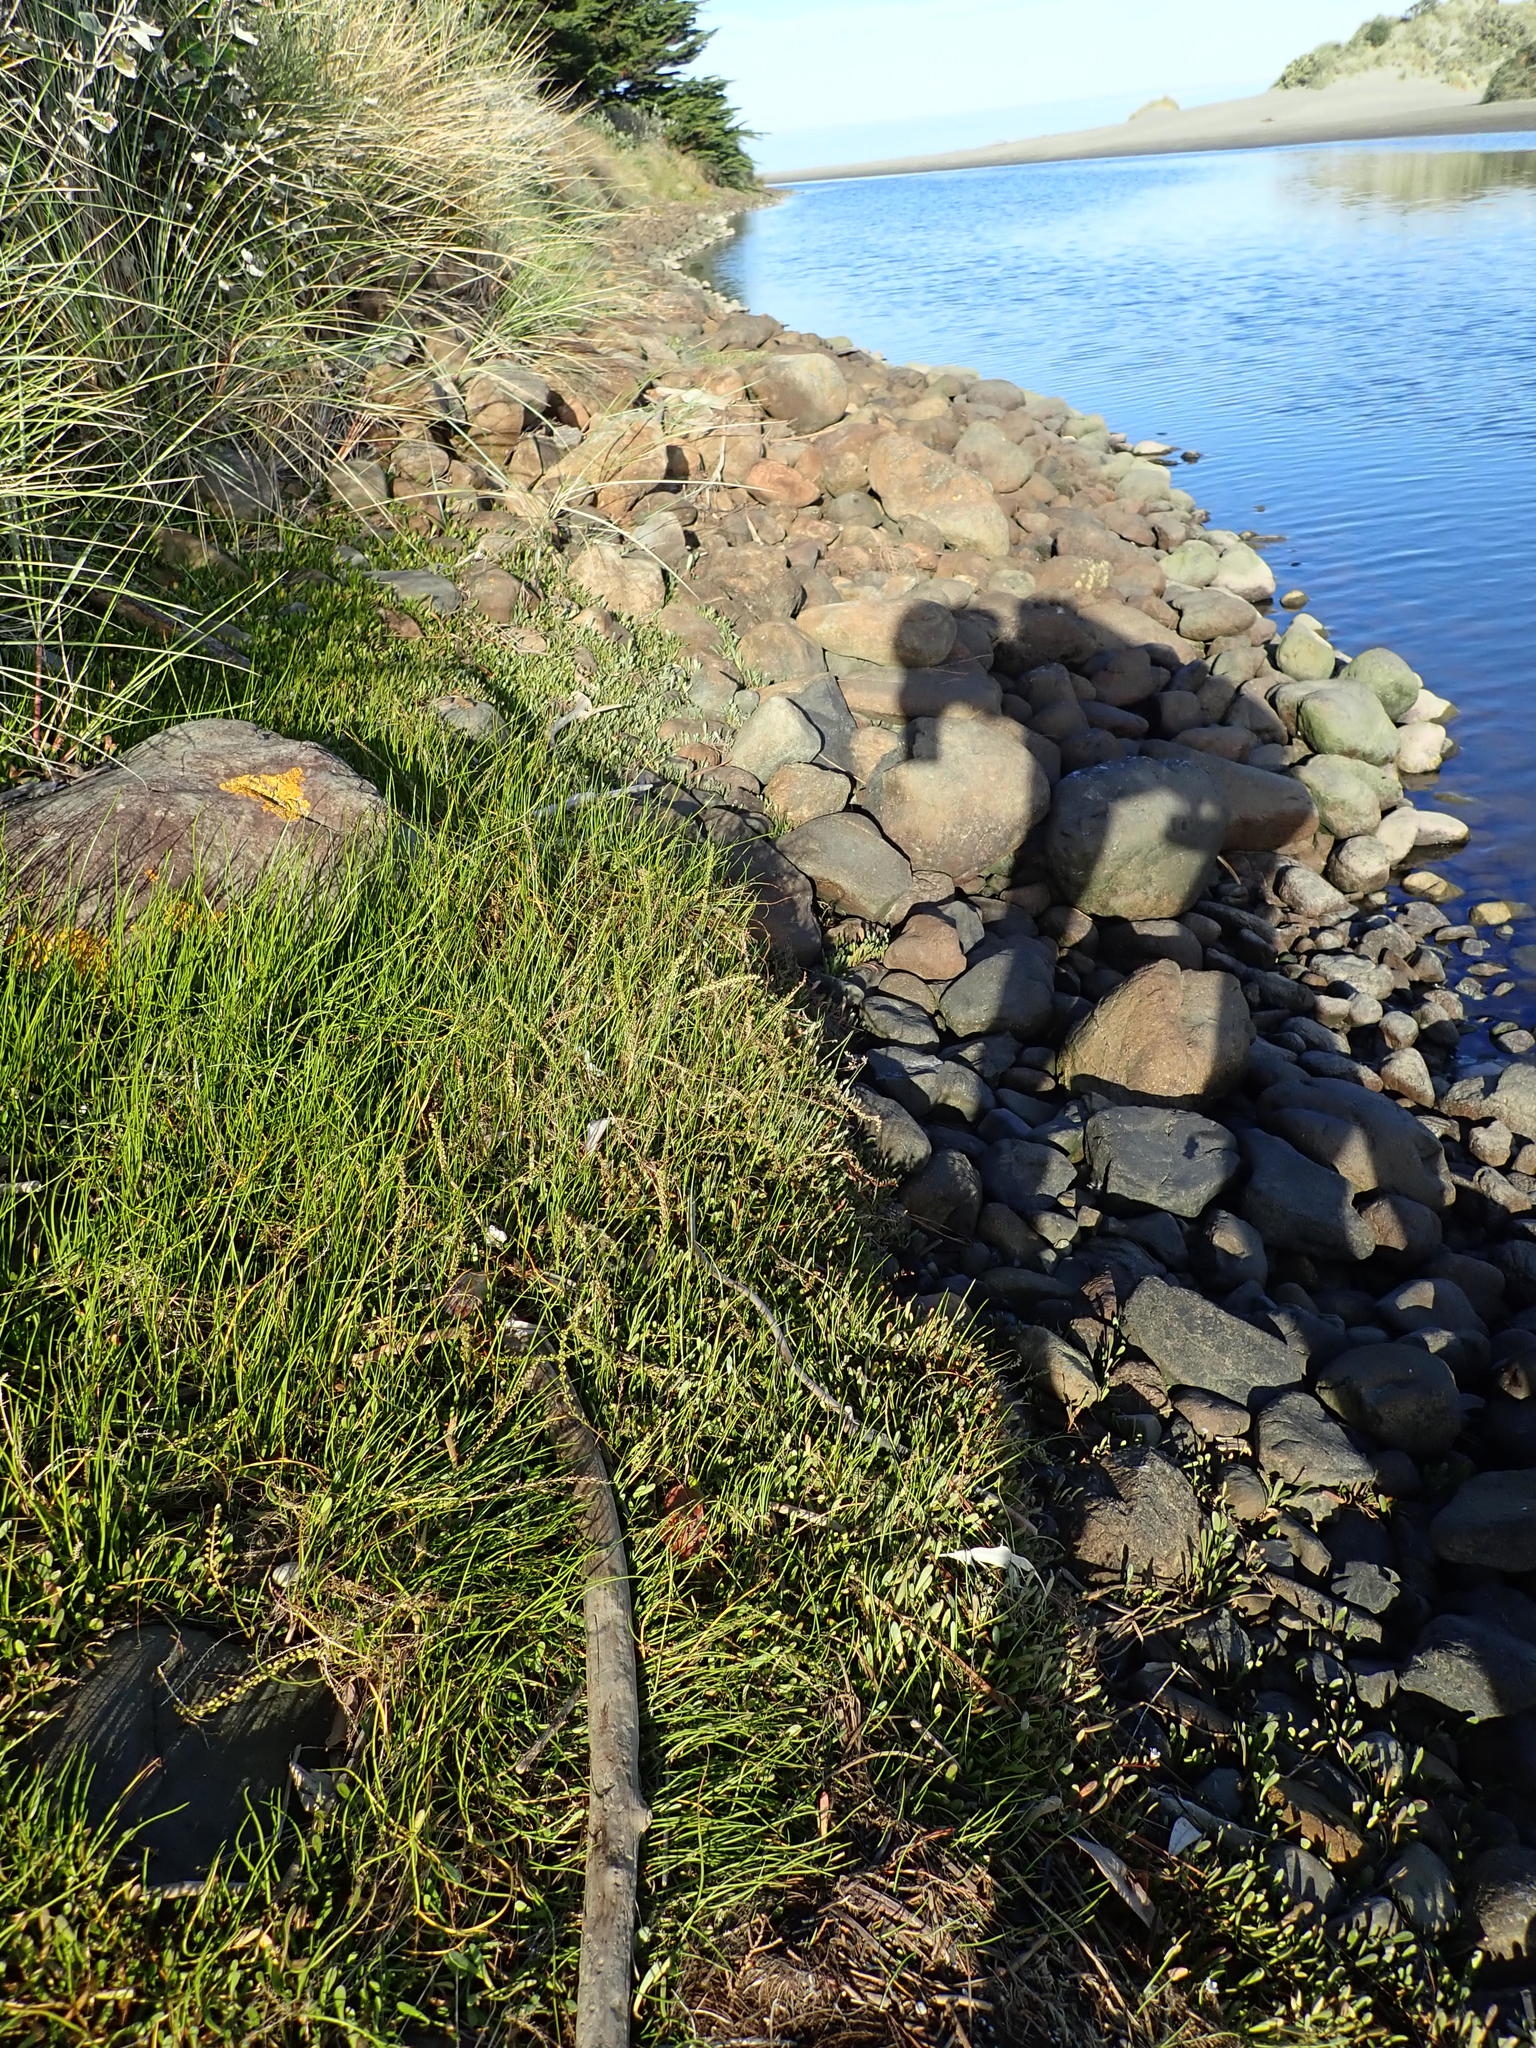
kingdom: Plantae
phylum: Tracheophyta
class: Liliopsida
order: Alismatales
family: Juncaginaceae
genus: Triglochin
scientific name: Triglochin striata
